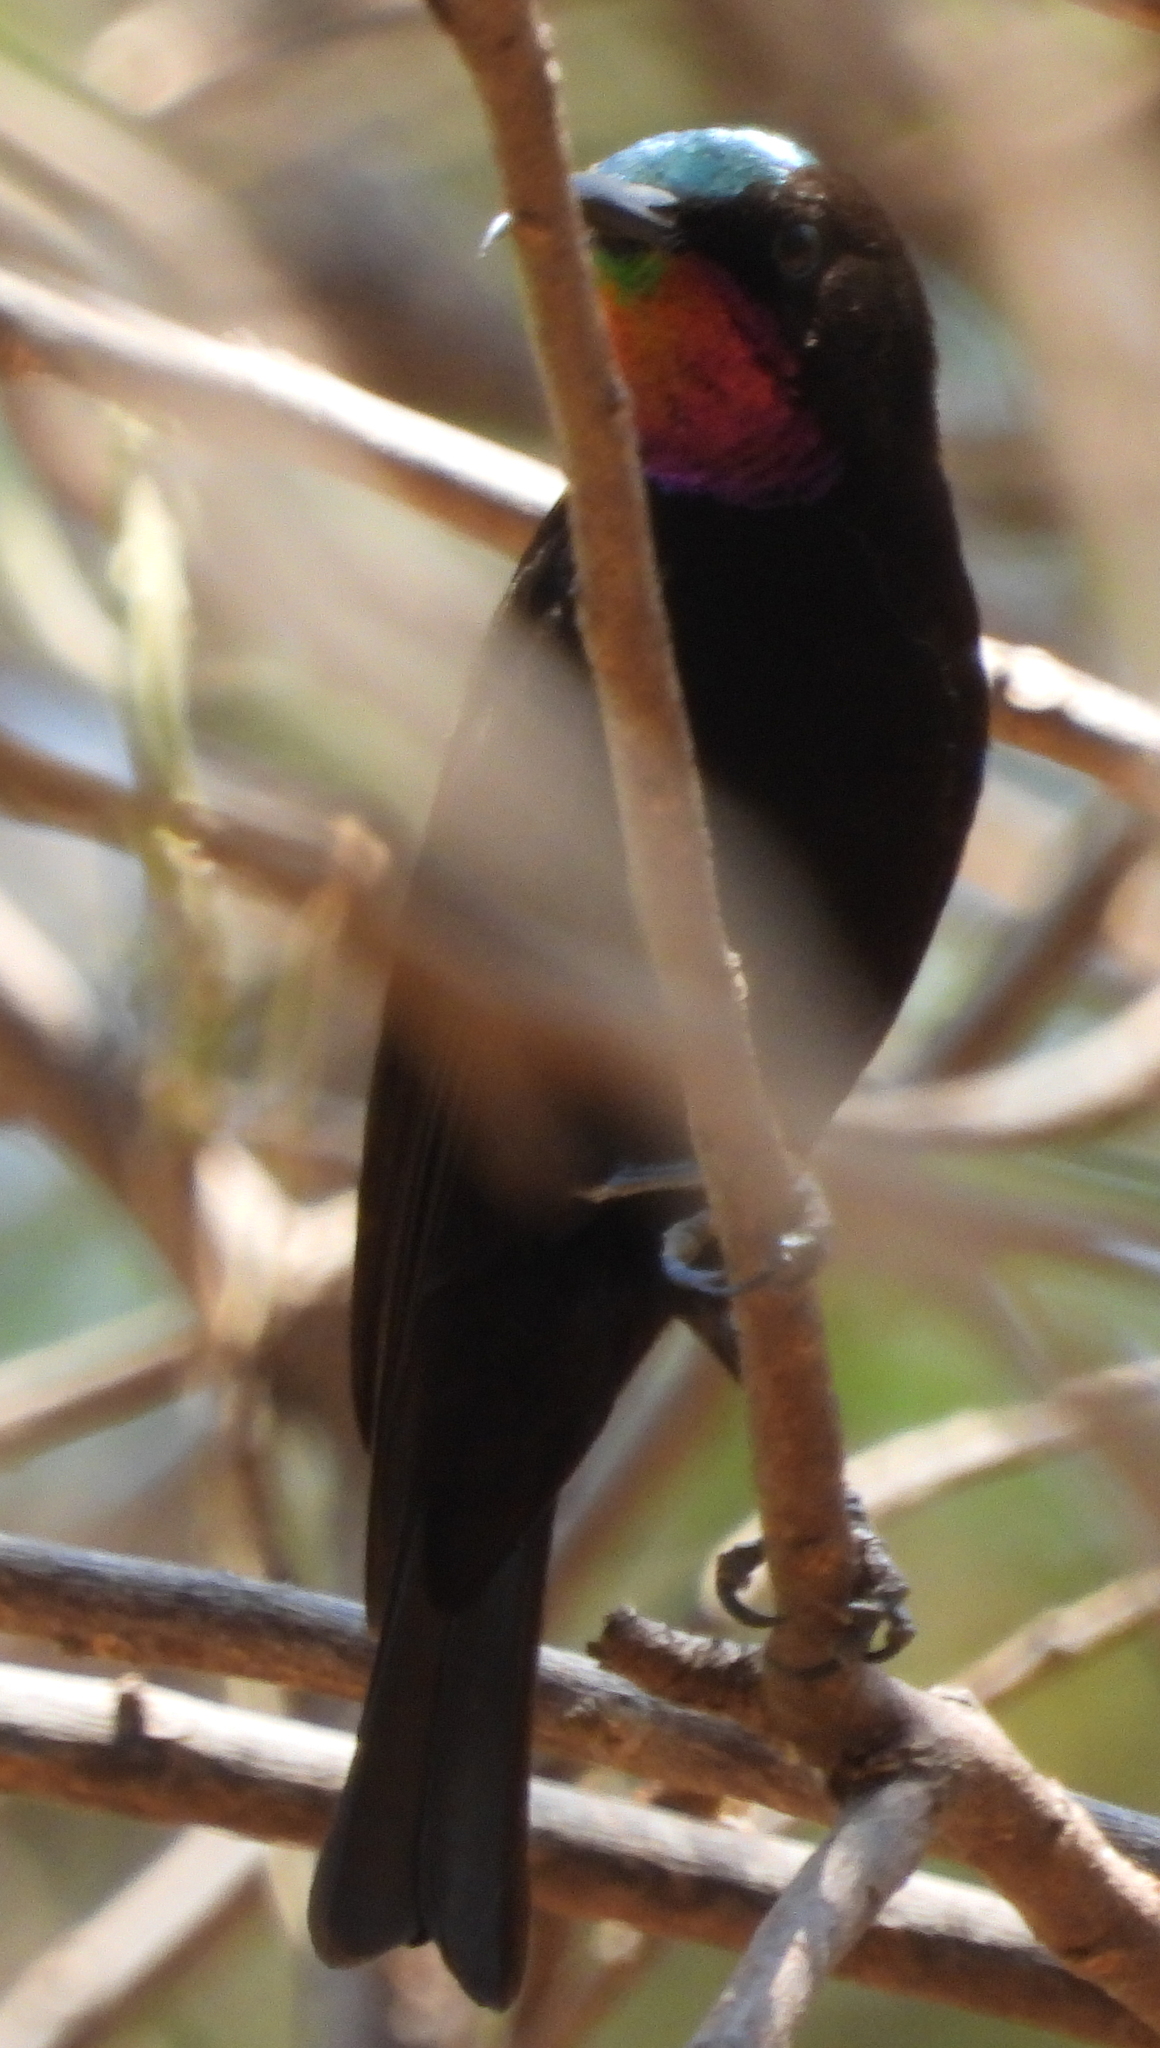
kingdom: Animalia
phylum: Chordata
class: Aves
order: Passeriformes
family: Nectariniidae
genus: Chalcomitra
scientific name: Chalcomitra senegalensis
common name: Scarlet-chested sunbird
